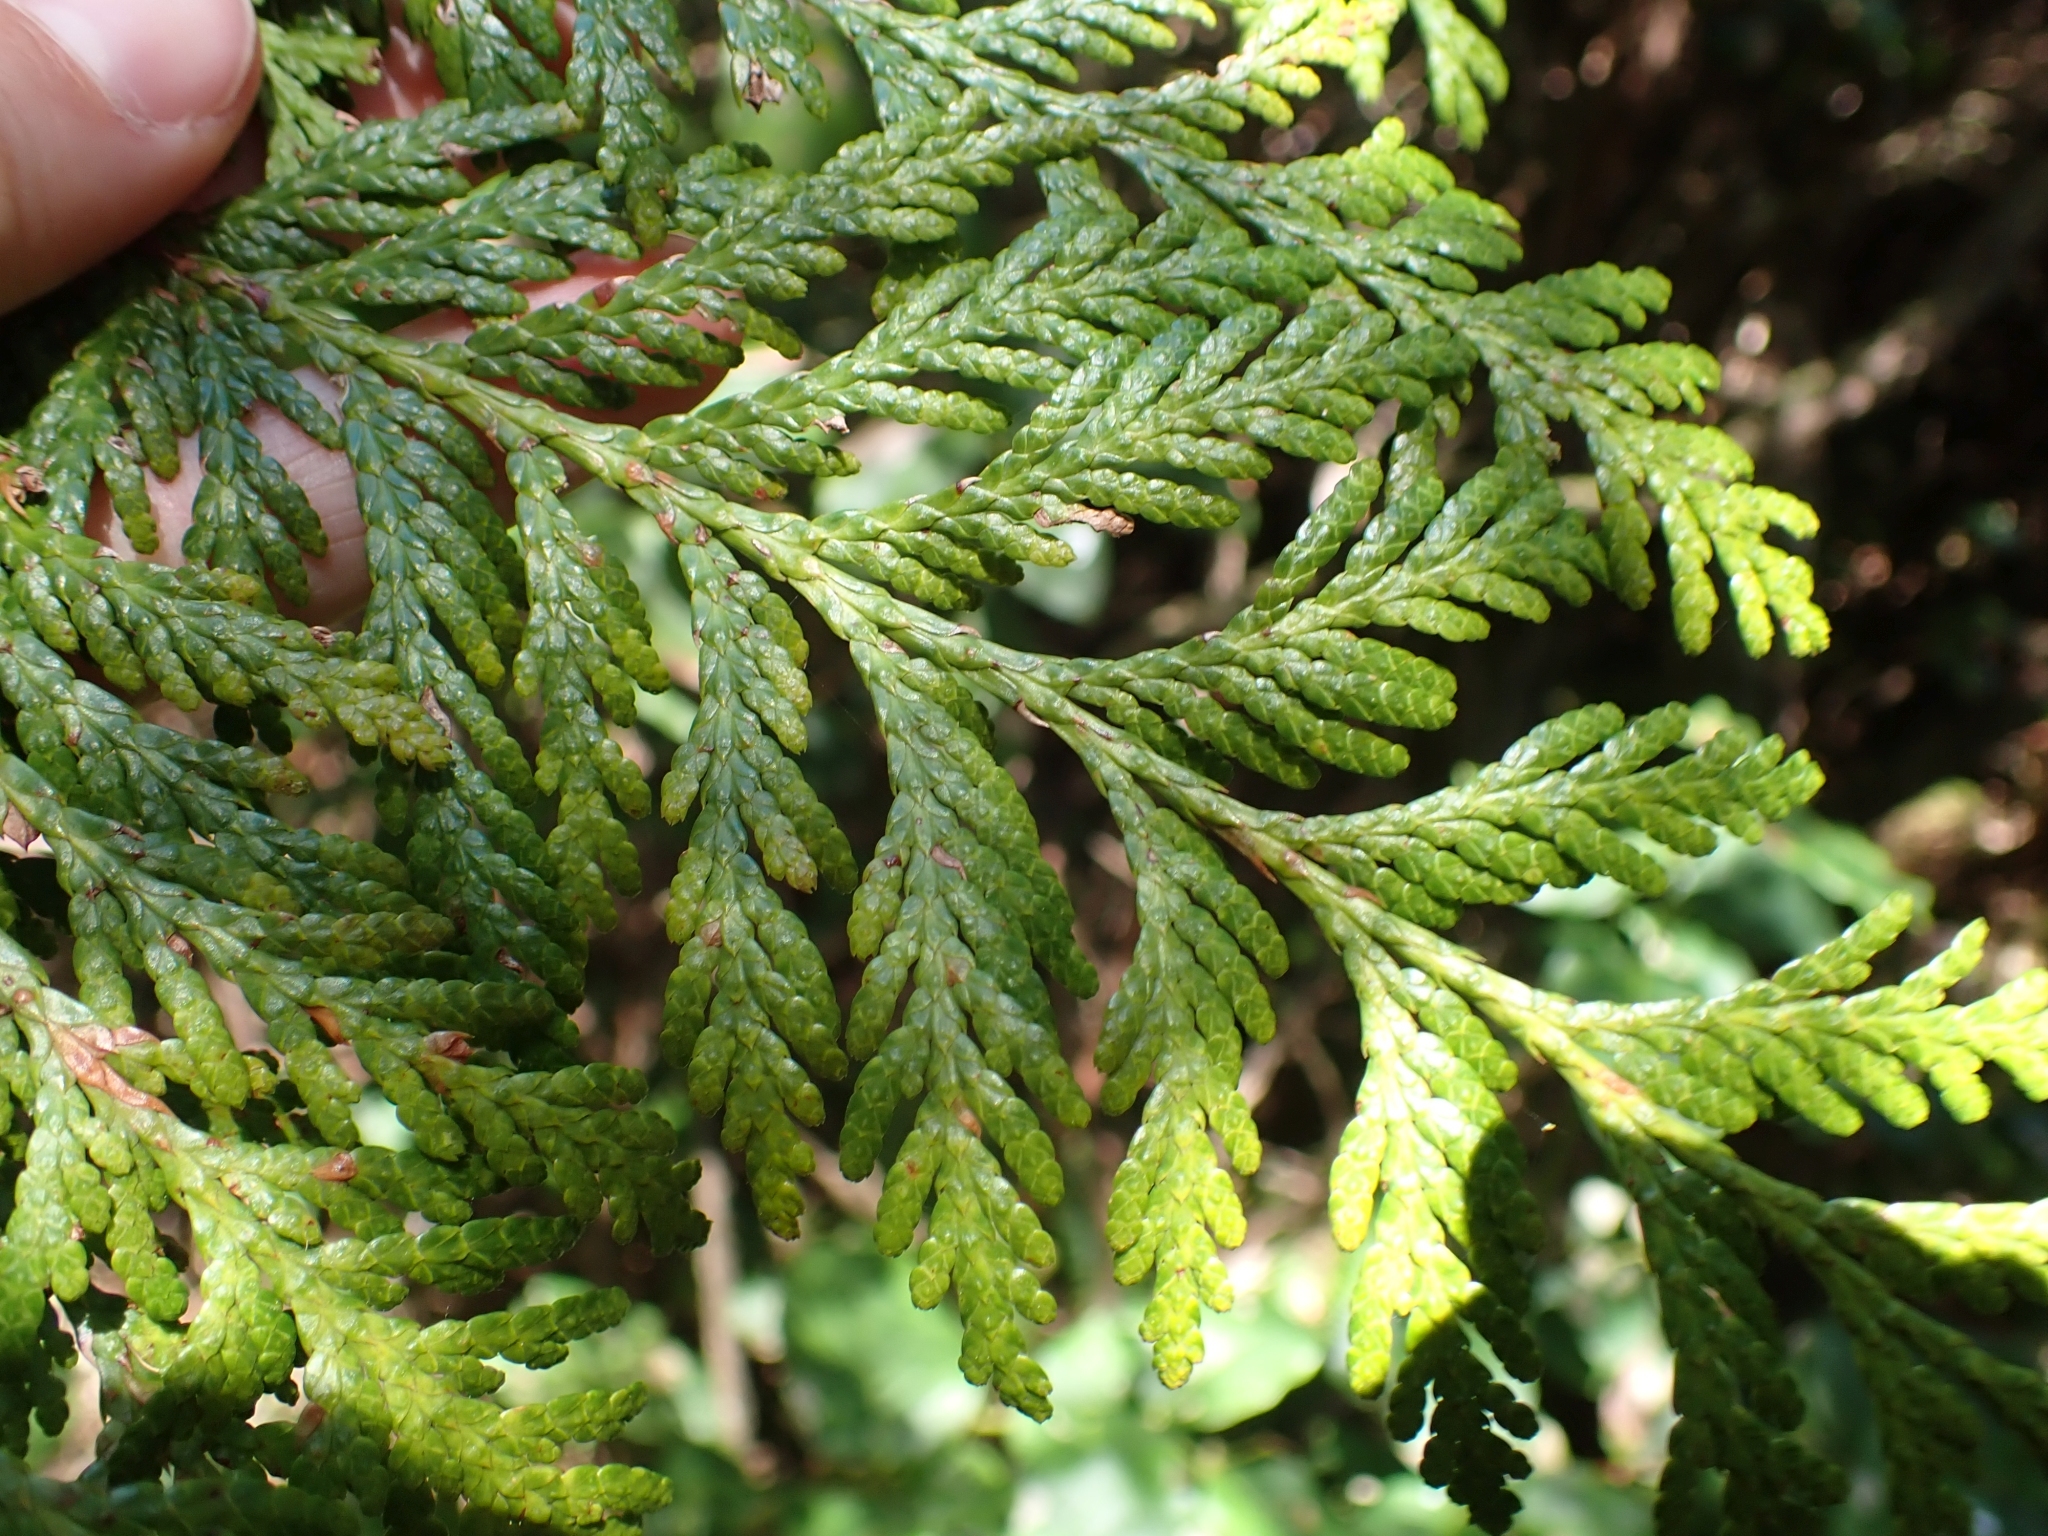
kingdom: Plantae
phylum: Tracheophyta
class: Pinopsida
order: Pinales
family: Cupressaceae
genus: Thuja
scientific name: Thuja plicata
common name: Western red-cedar
